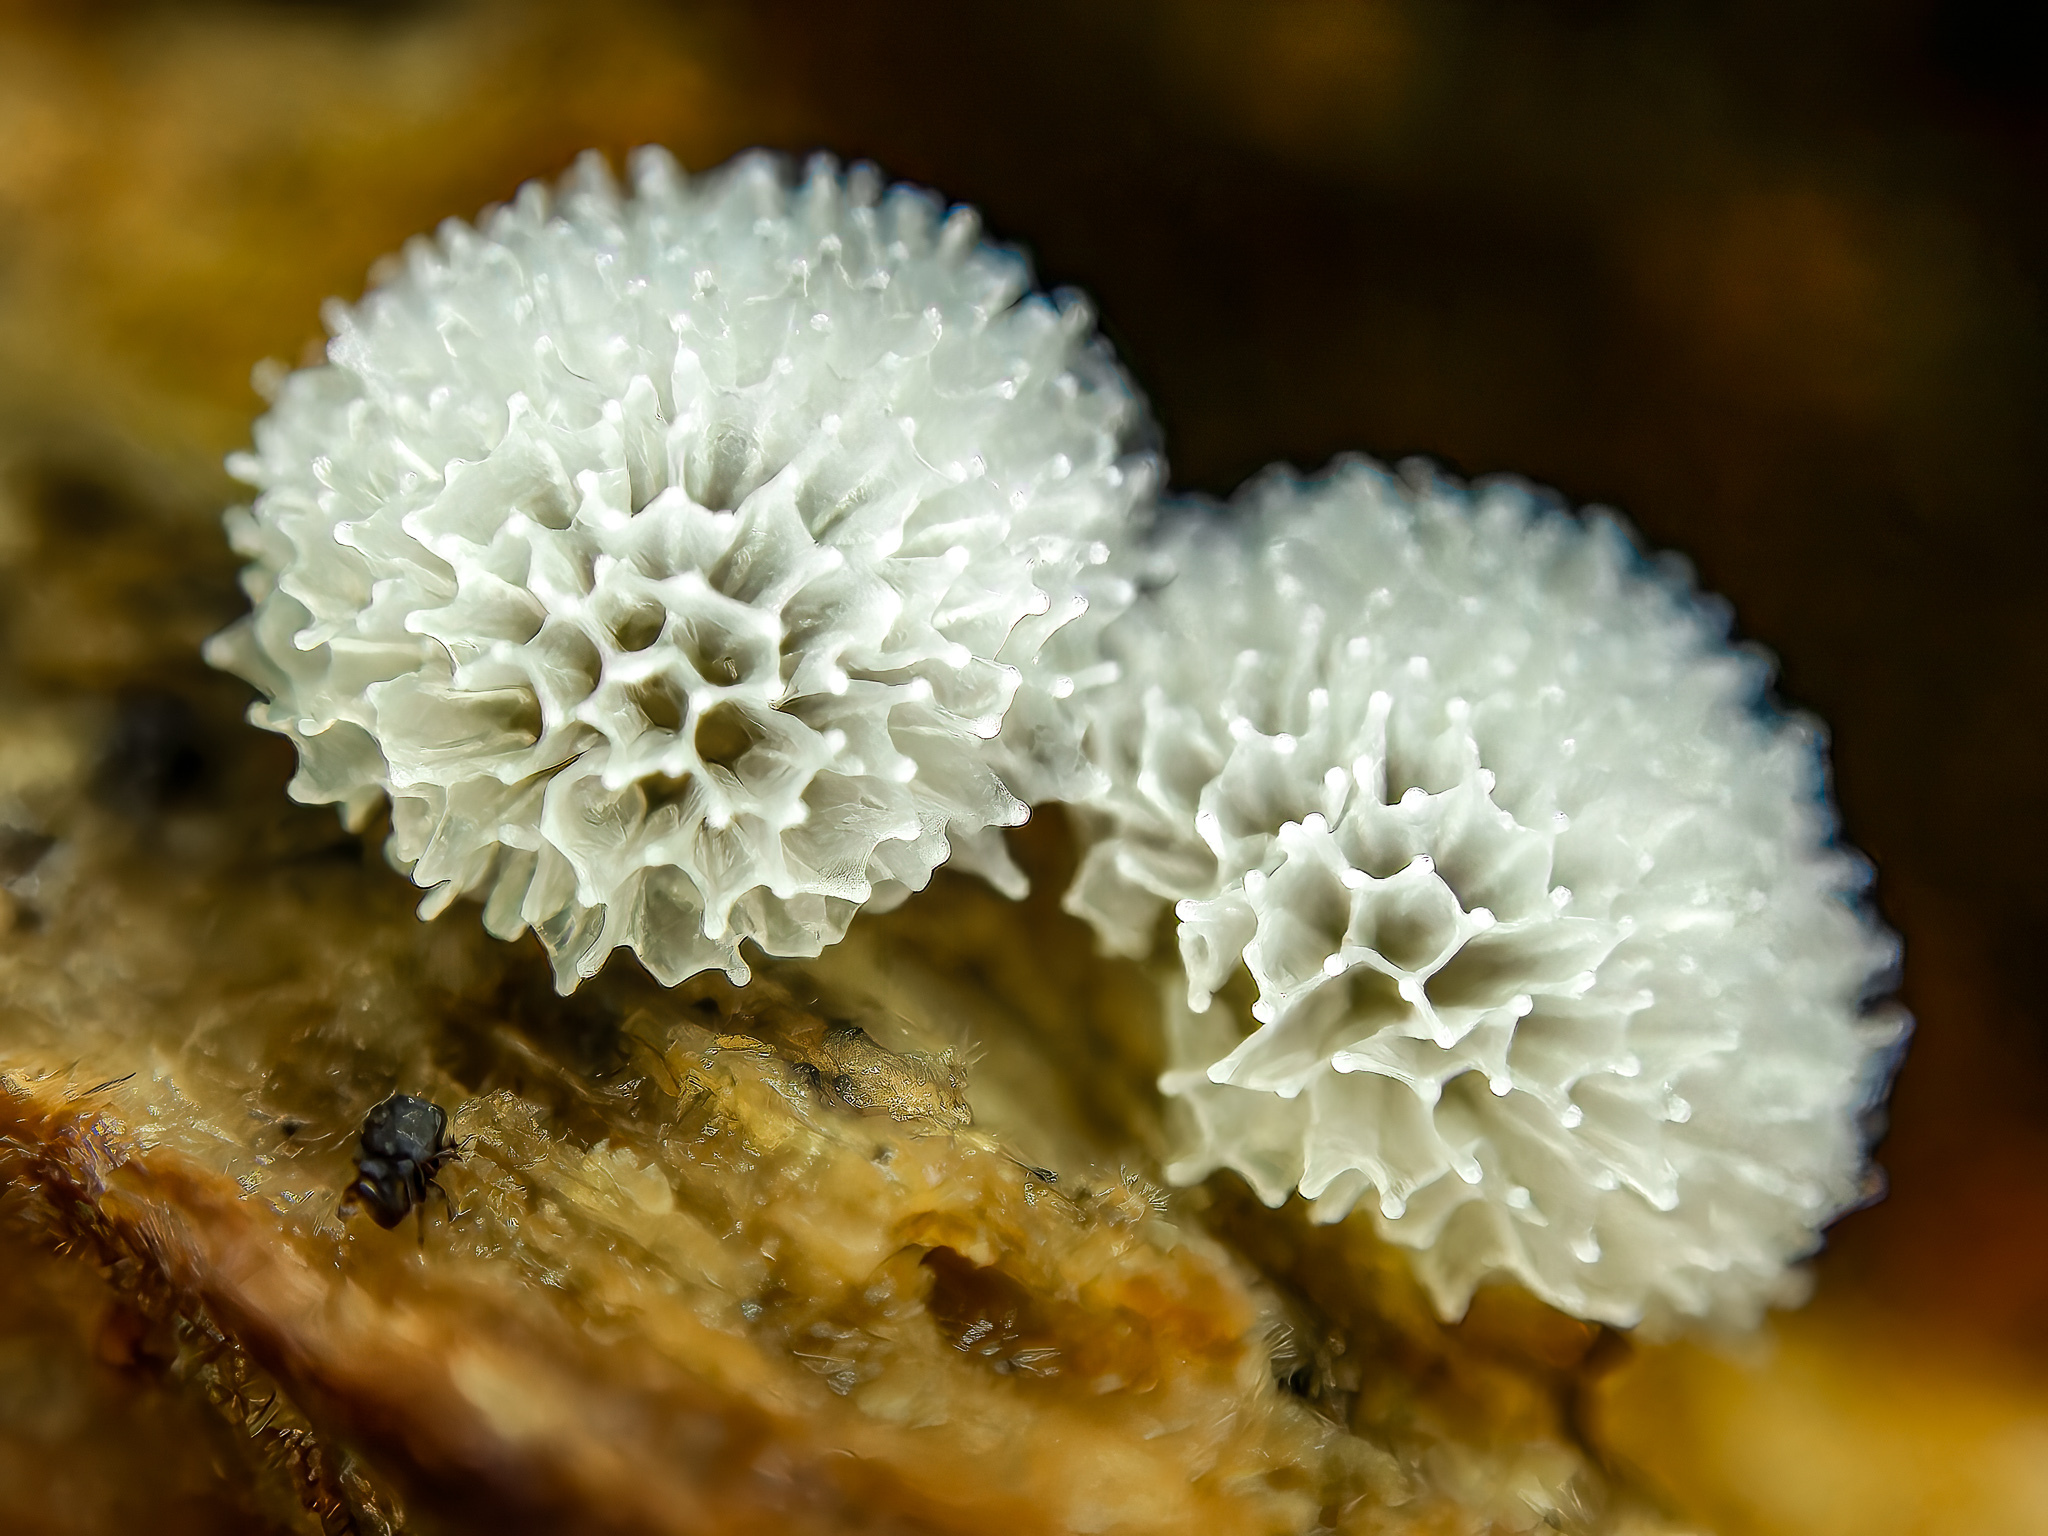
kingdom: Protozoa
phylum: Mycetozoa
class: Protosteliomycetes
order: Ceratiomyxales
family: Ceratiomyxaceae
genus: Ceratiomyxa
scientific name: Ceratiomyxa fruticulosa
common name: Honeycomb coral slime mold
